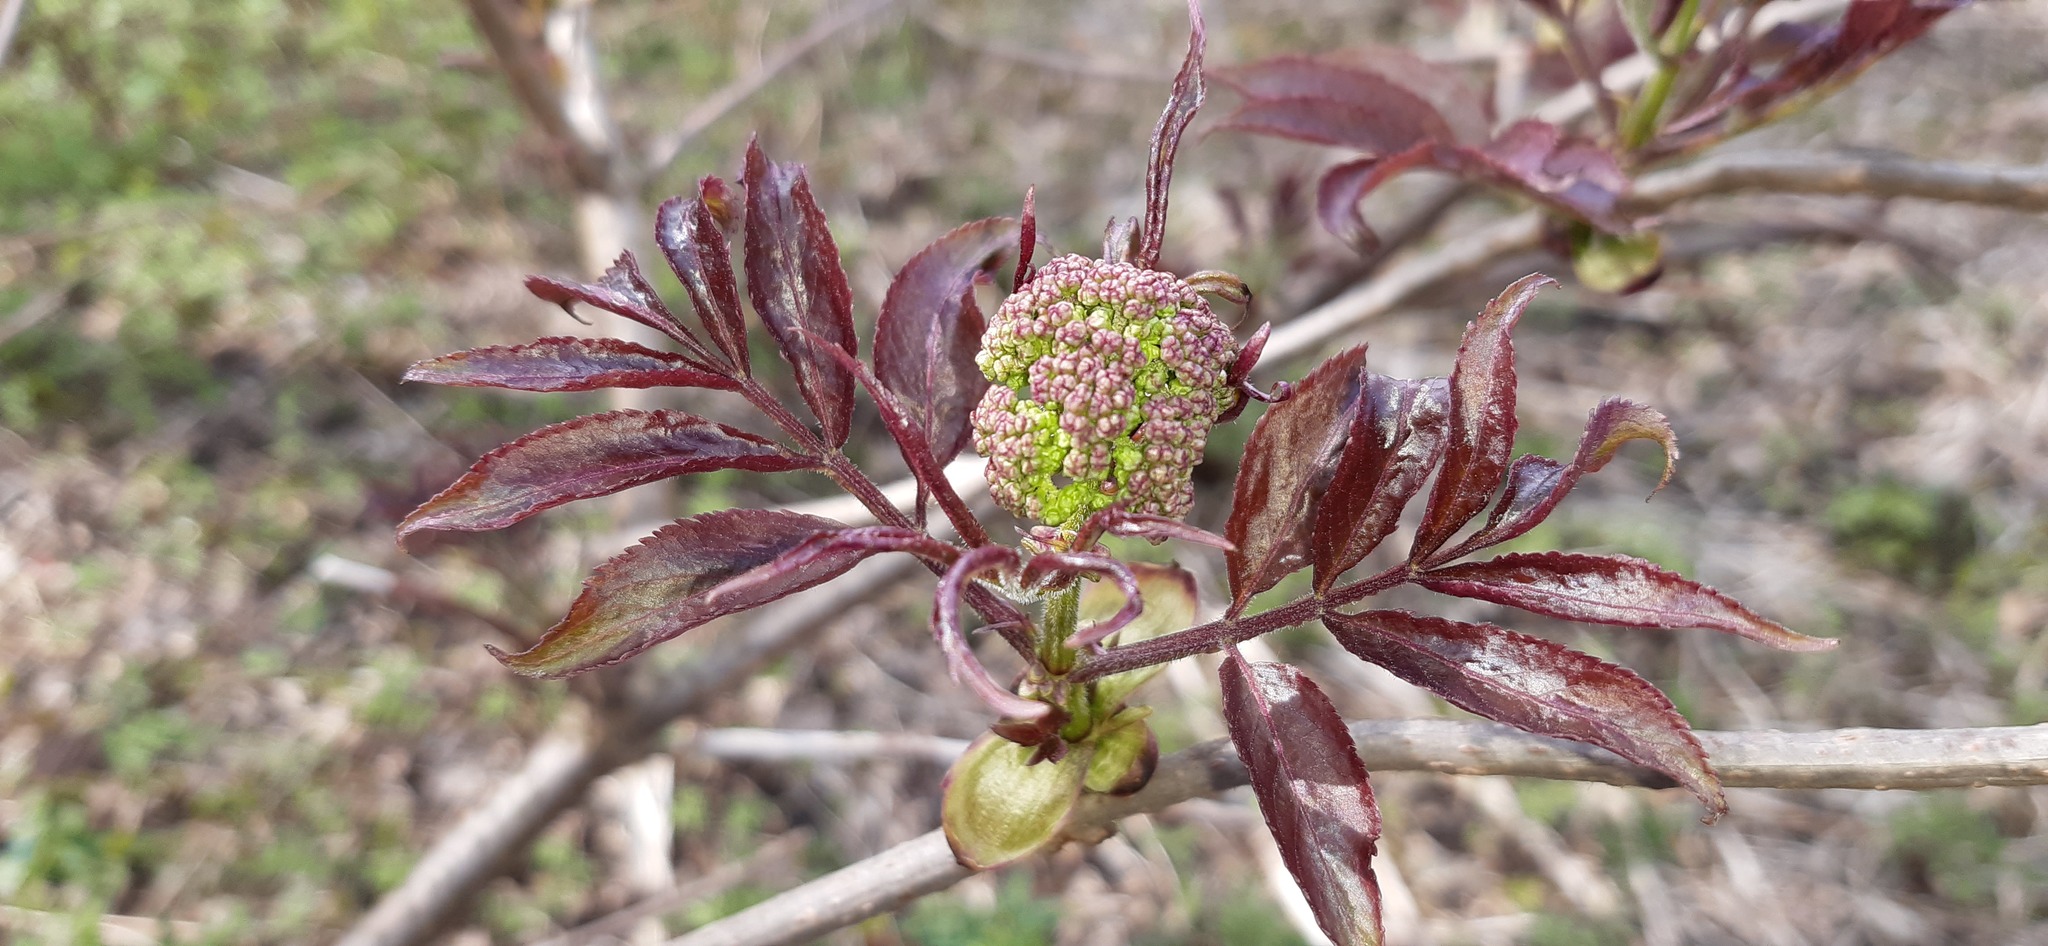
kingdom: Plantae
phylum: Tracheophyta
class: Magnoliopsida
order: Dipsacales
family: Viburnaceae
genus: Sambucus
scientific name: Sambucus racemosa
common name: Red-berried elder
